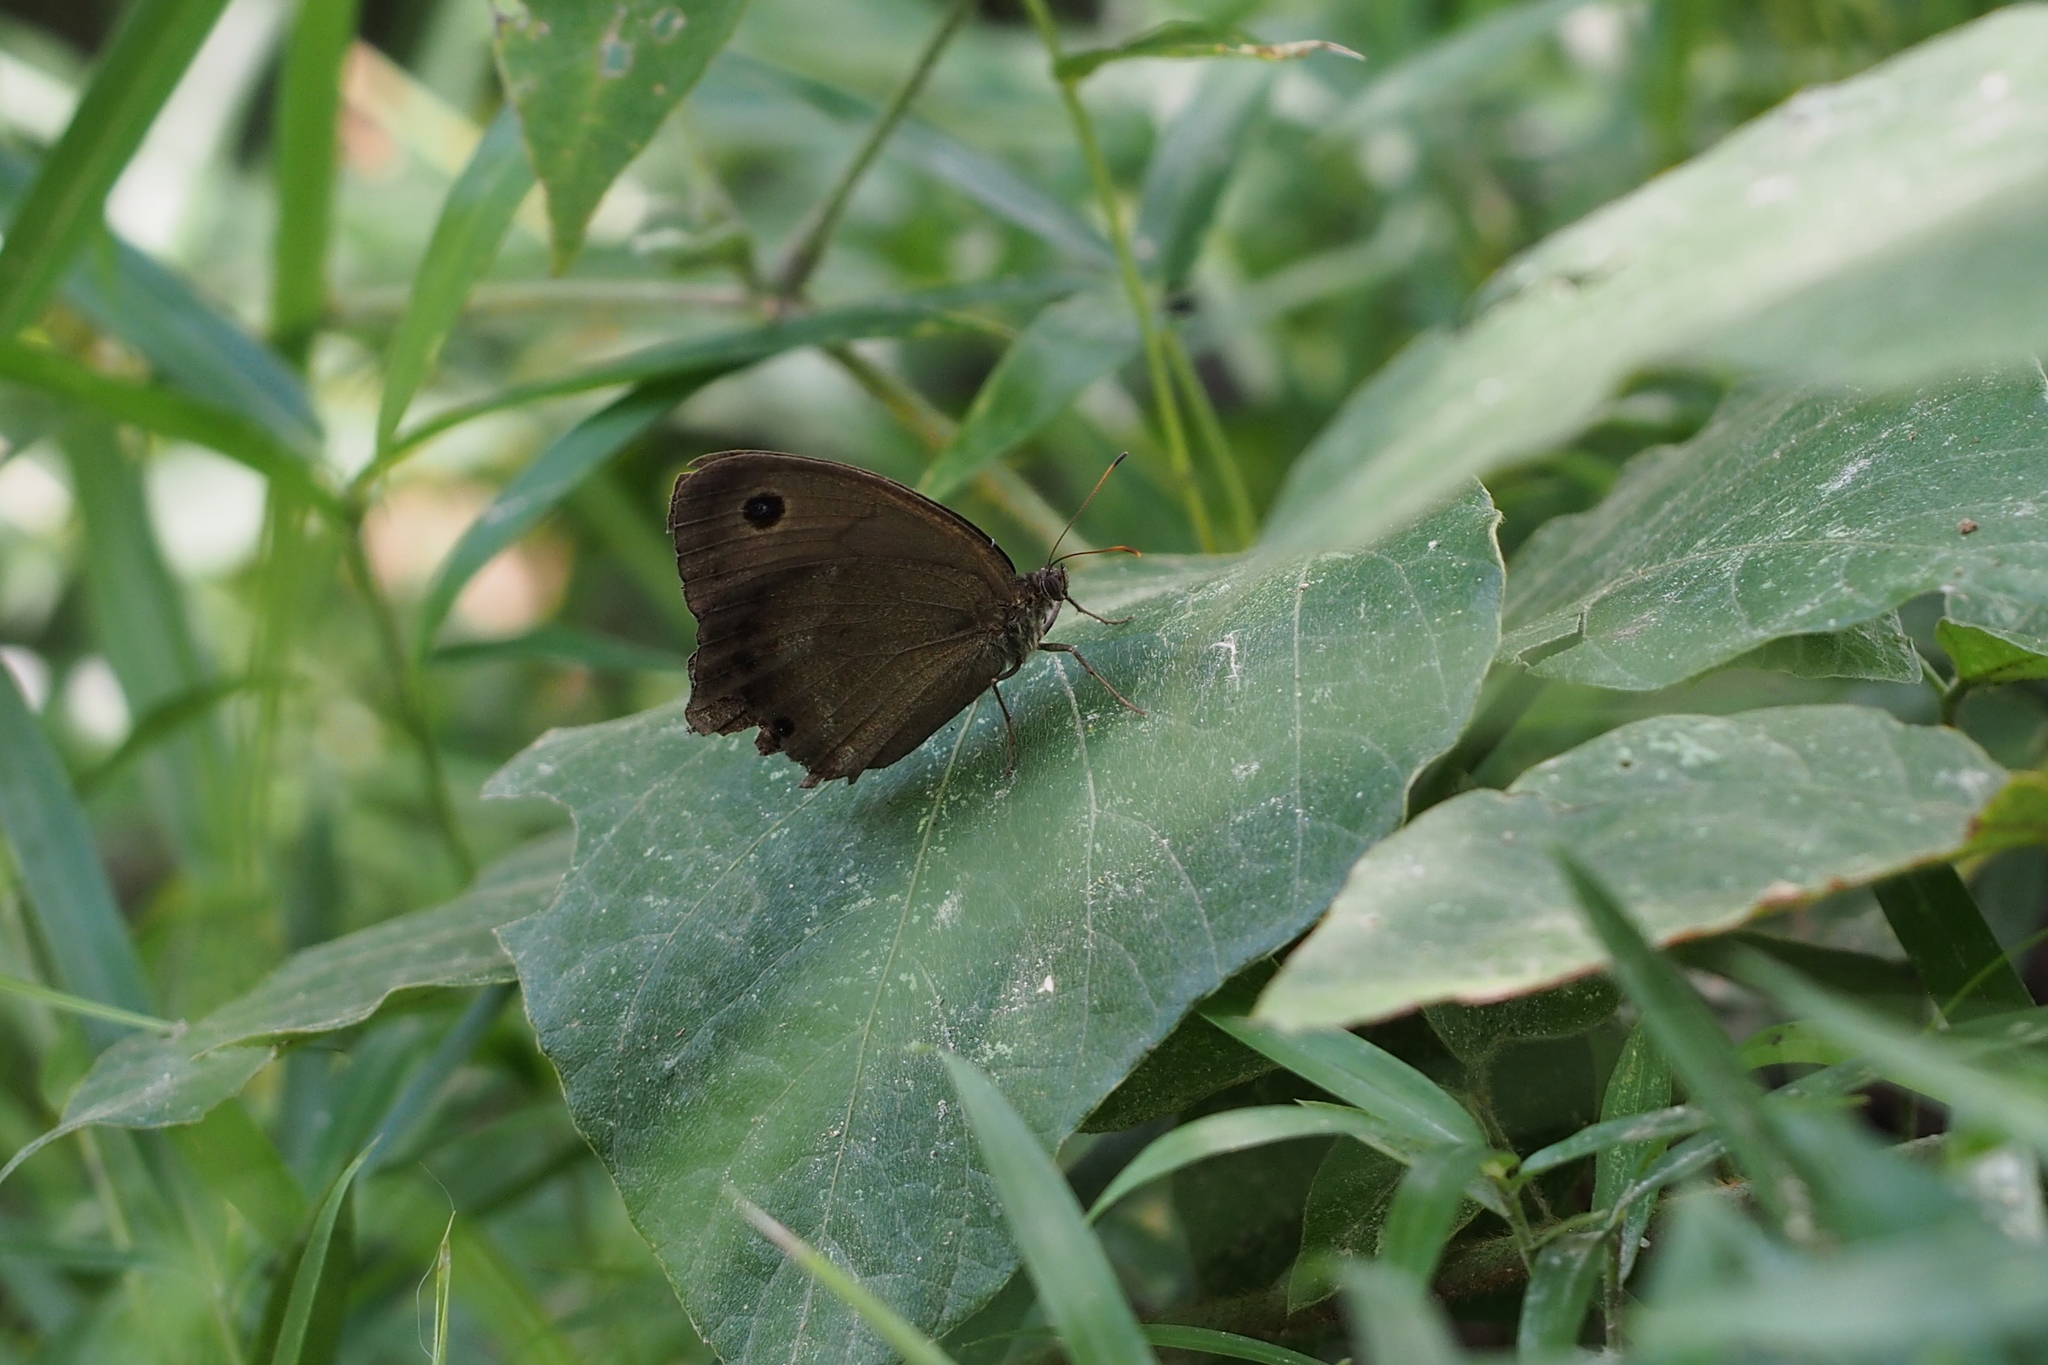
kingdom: Animalia
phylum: Arthropoda
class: Insecta
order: Lepidoptera
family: Nymphalidae
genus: Minois
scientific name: Minois dryas
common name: Dryad
